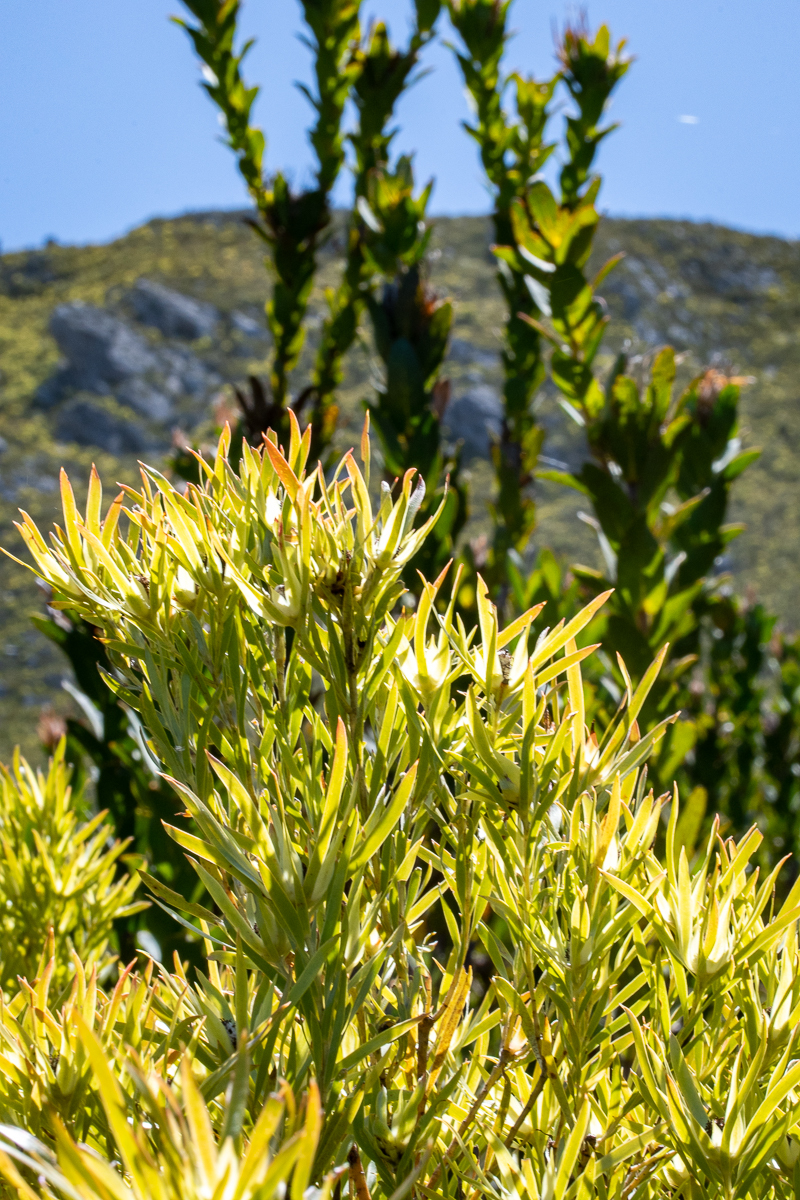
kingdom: Plantae
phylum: Tracheophyta
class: Magnoliopsida
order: Proteales
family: Proteaceae
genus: Leucadendron
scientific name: Leucadendron xanthoconus
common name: Sickle-leaf conebush
